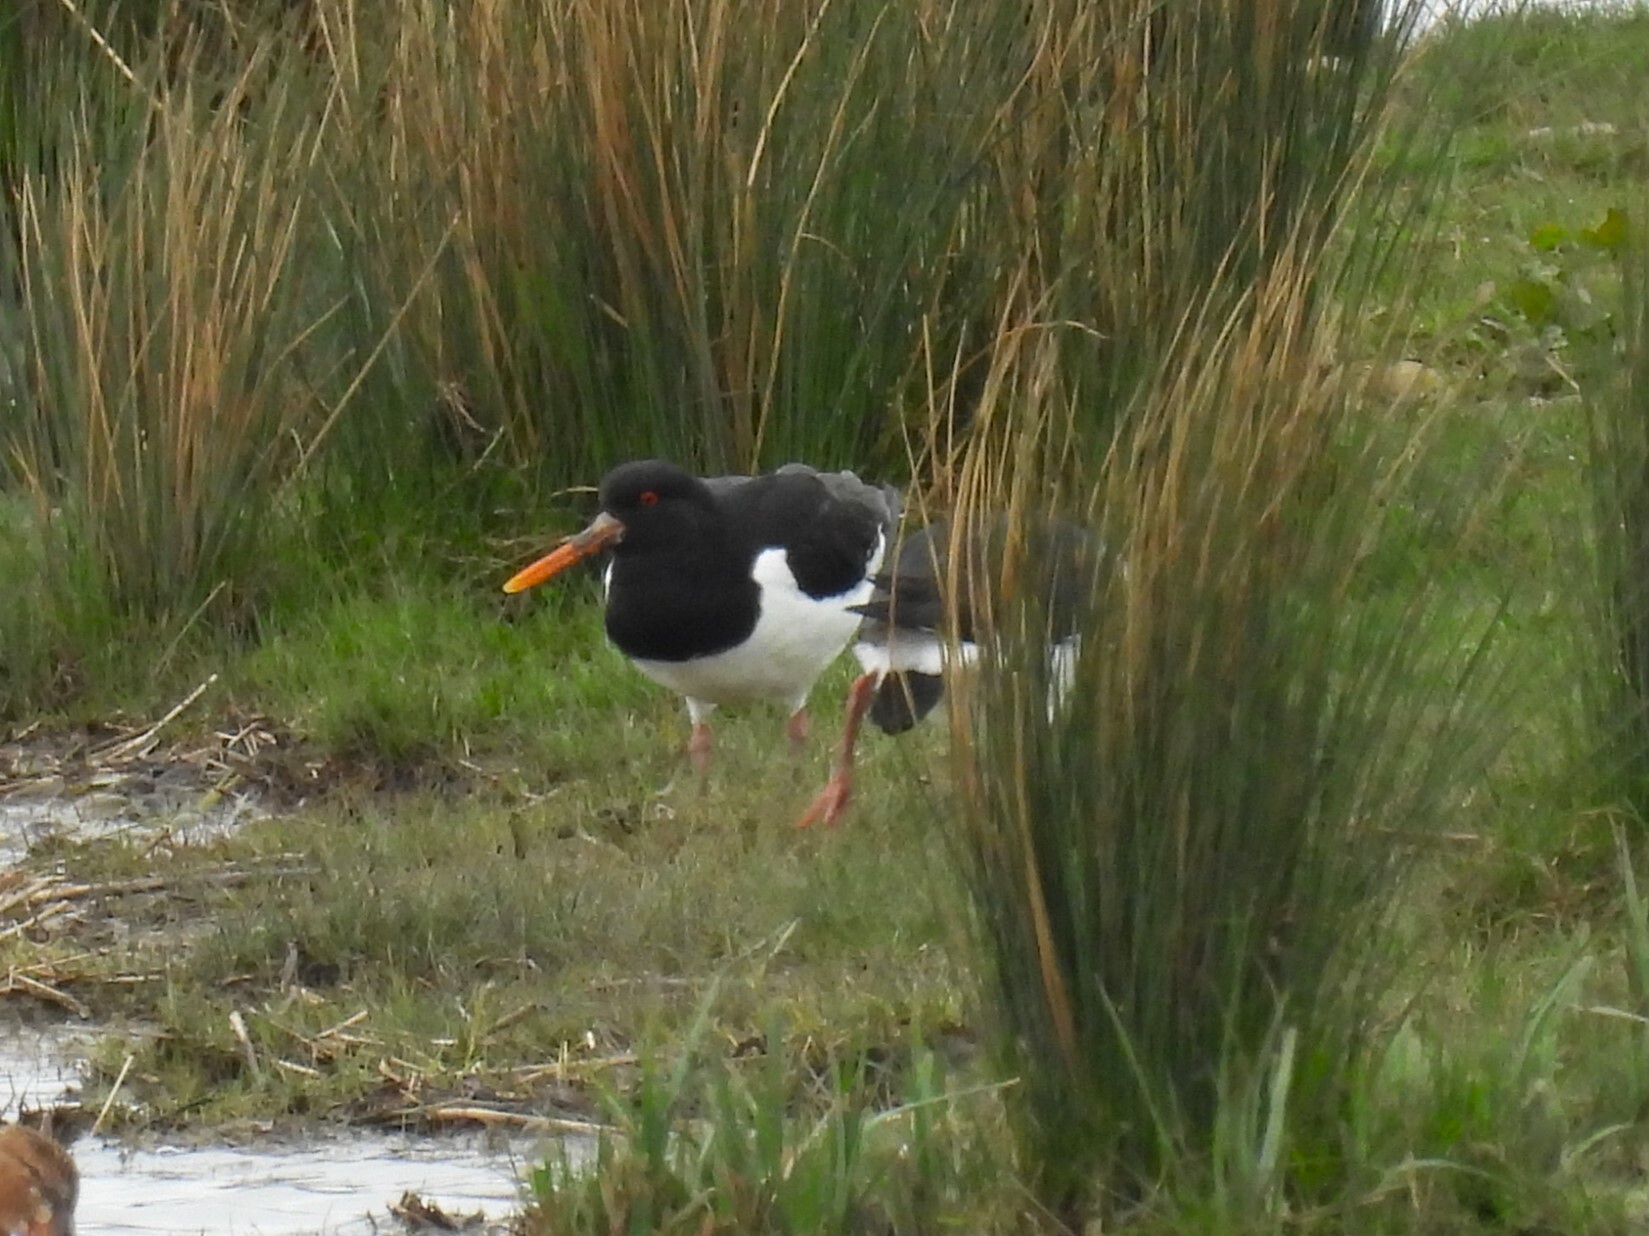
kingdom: Animalia
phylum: Chordata
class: Aves
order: Charadriiformes
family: Haematopodidae
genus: Haematopus
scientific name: Haematopus ostralegus
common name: Eurasian oystercatcher
